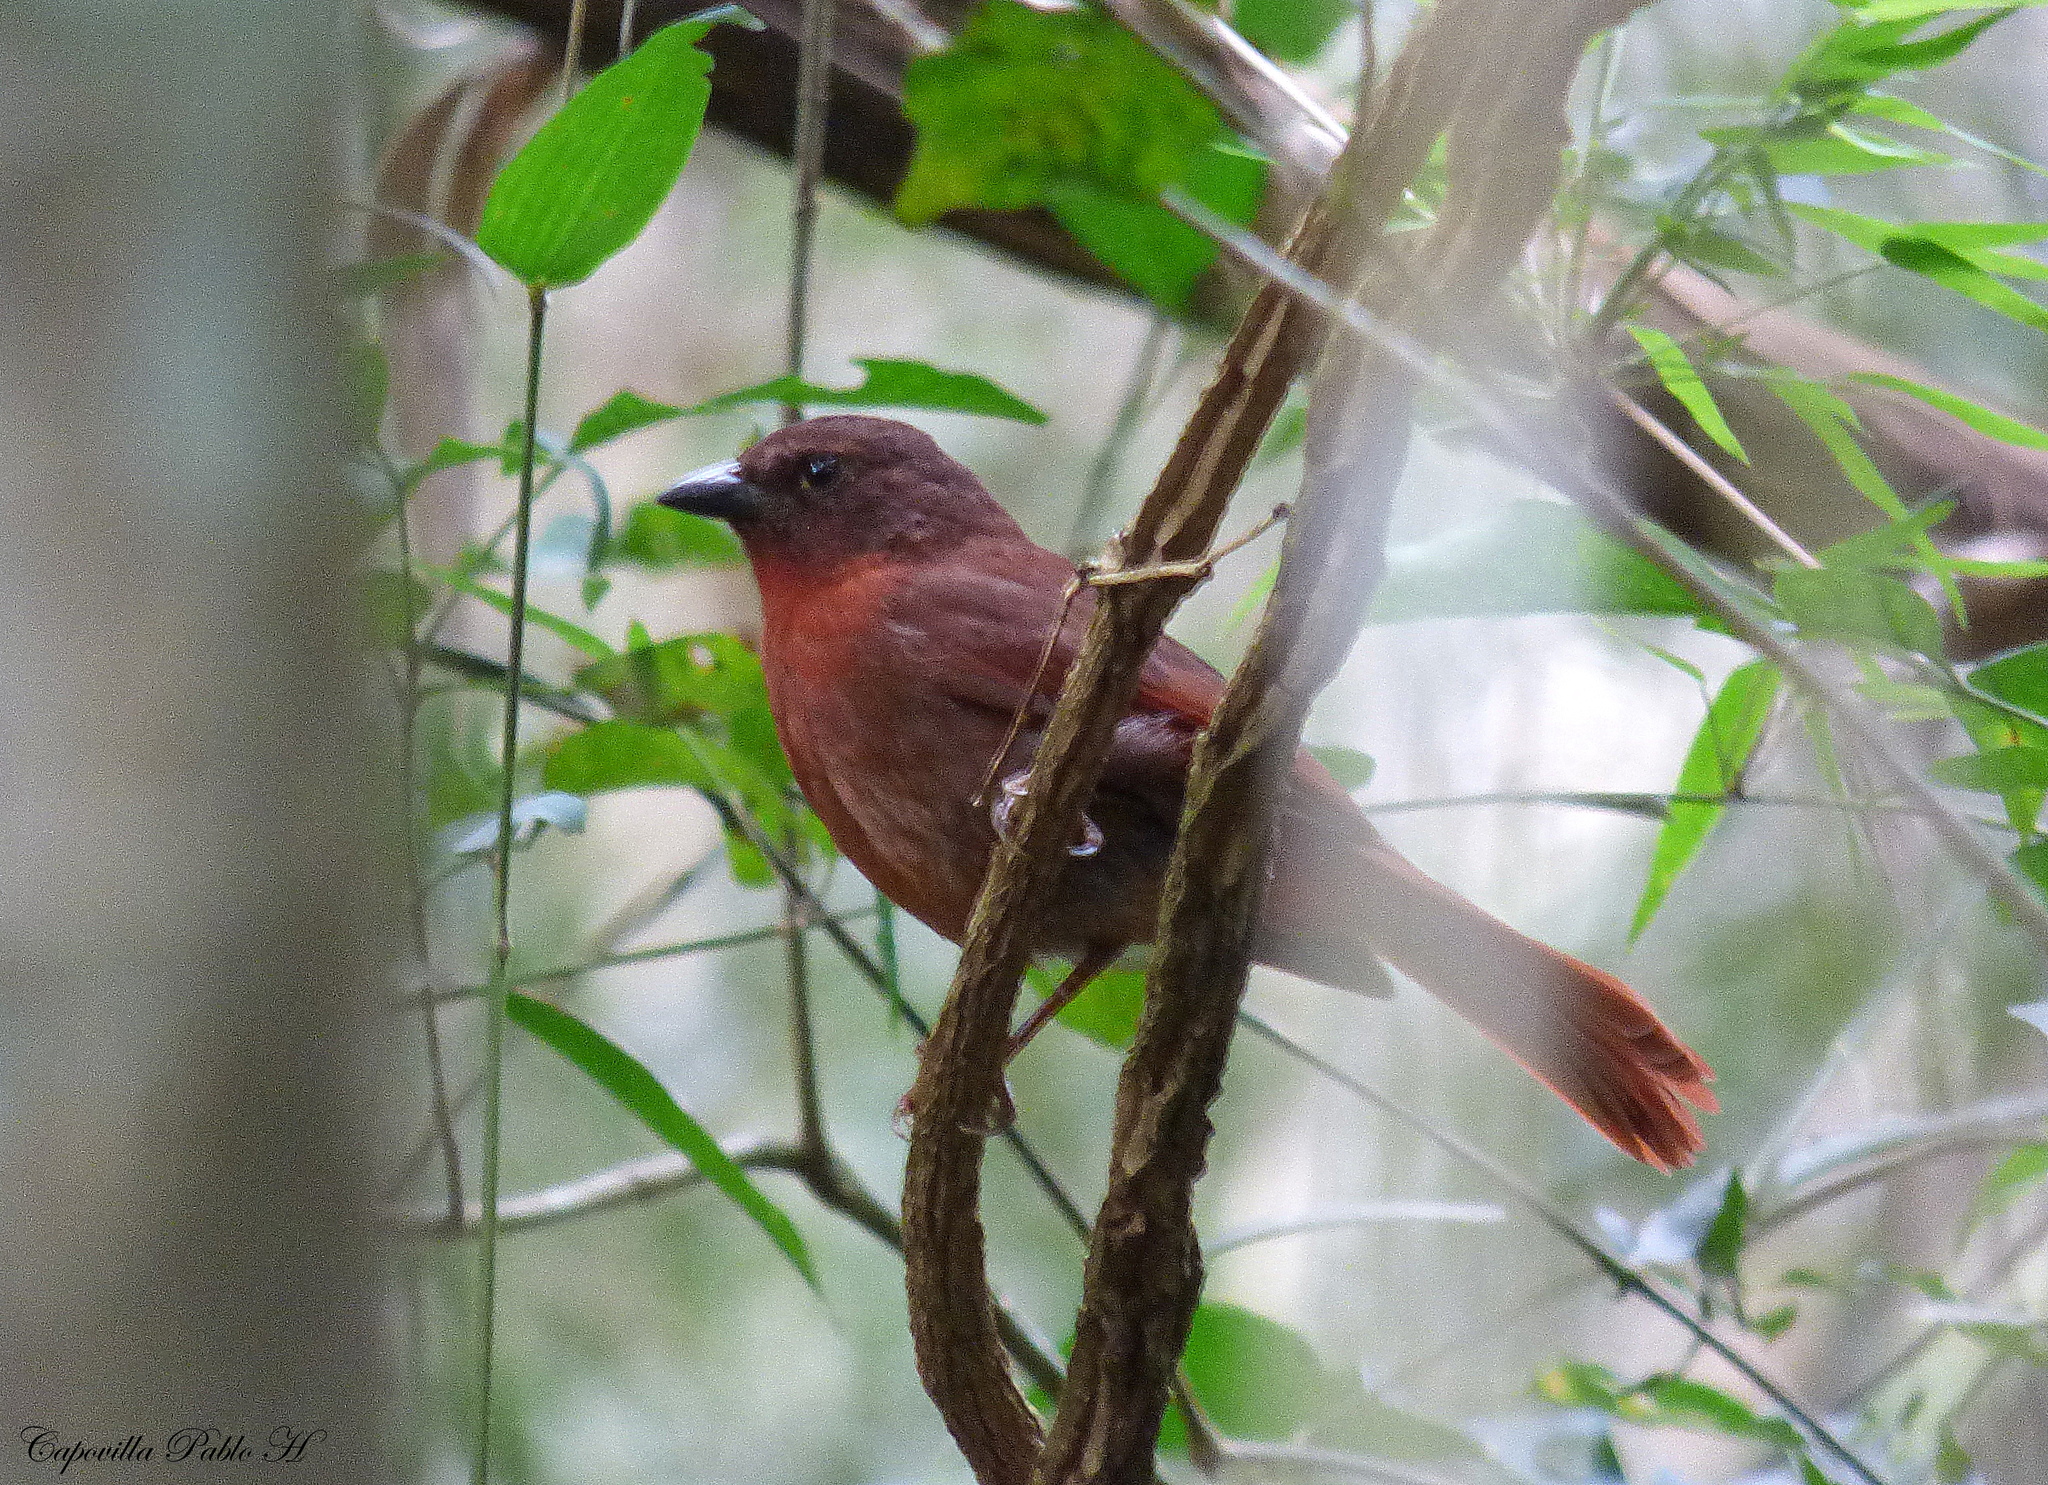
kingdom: Animalia
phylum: Chordata
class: Aves
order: Passeriformes
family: Cardinalidae
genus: Habia
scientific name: Habia rubica
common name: Red-crowned ant-tanager
